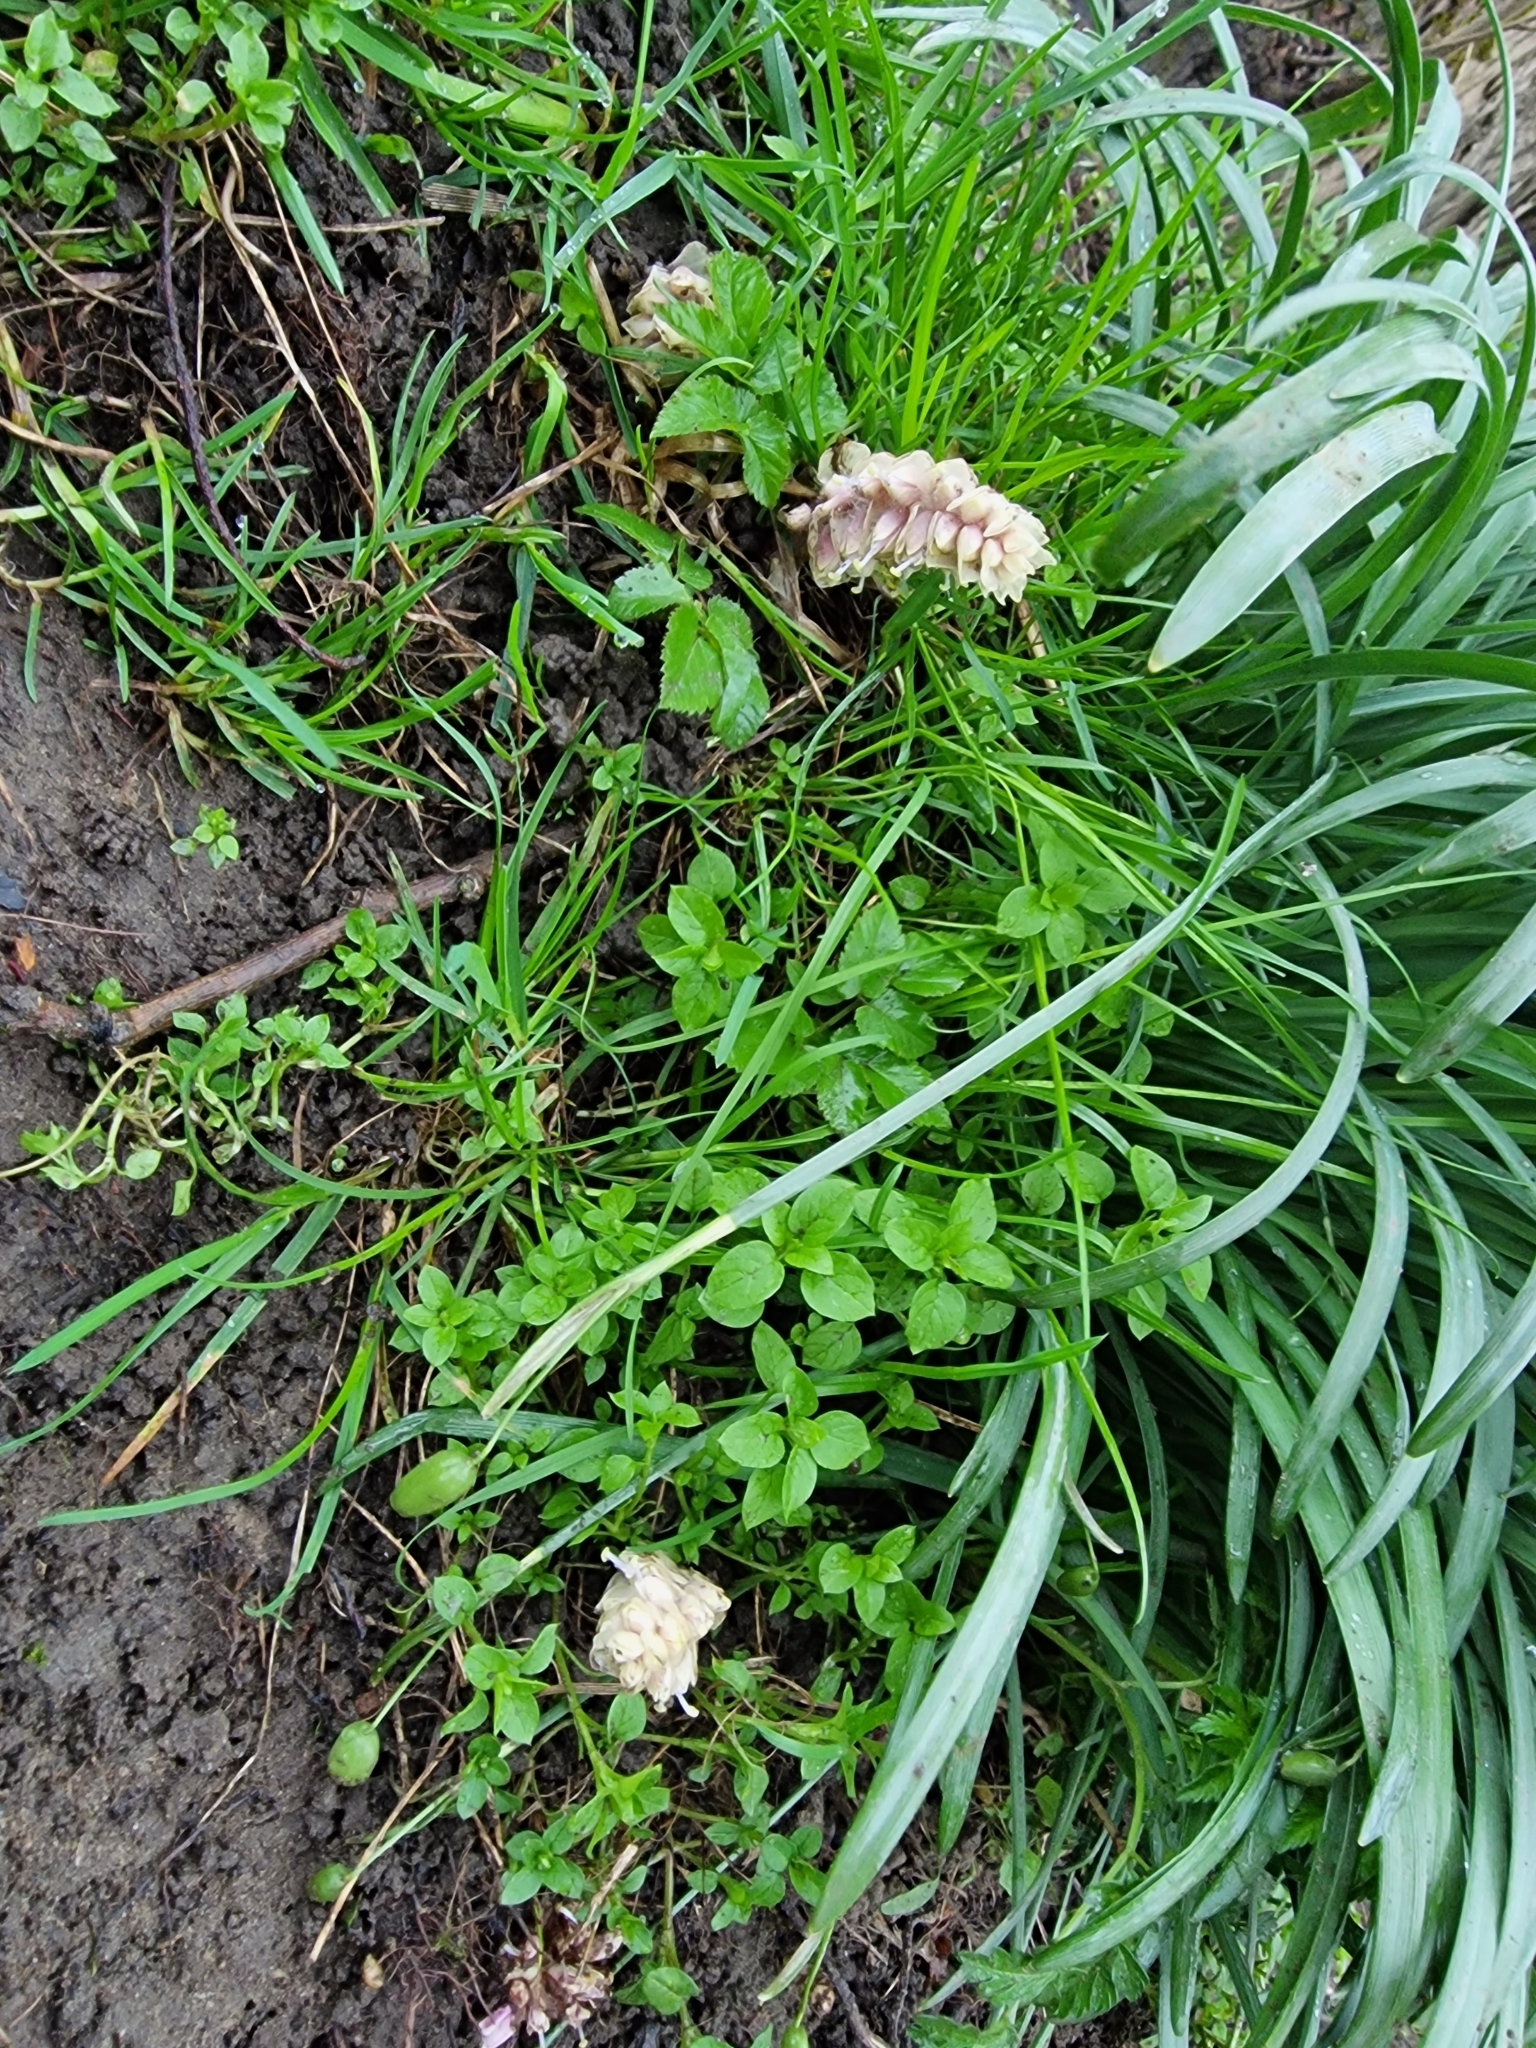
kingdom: Plantae
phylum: Tracheophyta
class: Magnoliopsida
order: Lamiales
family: Orobanchaceae
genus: Lathraea
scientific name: Lathraea squamaria
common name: Toothwort
